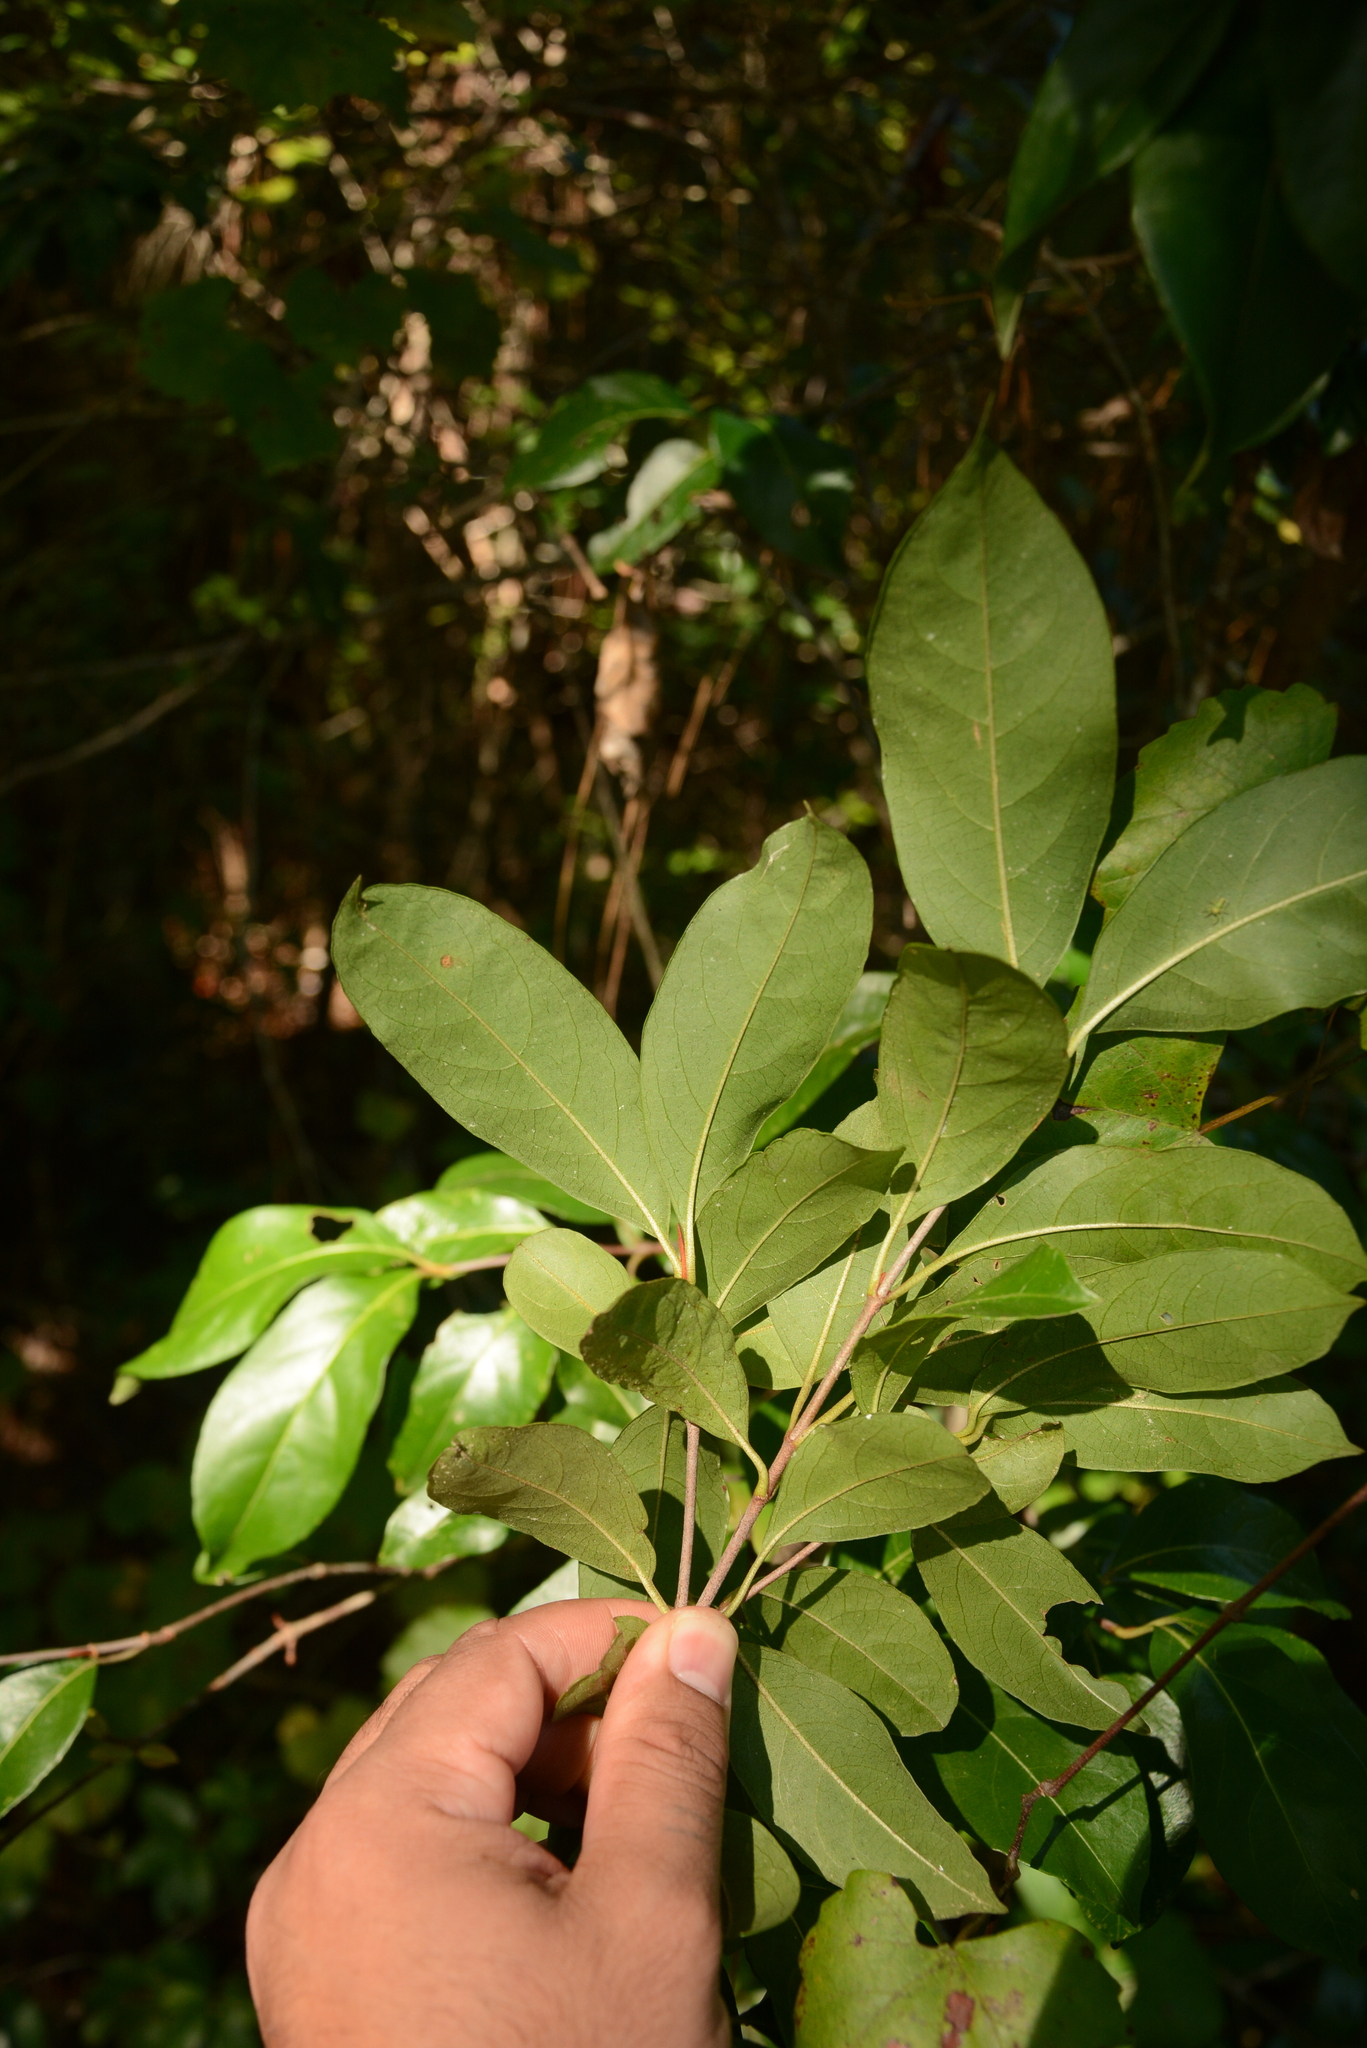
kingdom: Plantae
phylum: Tracheophyta
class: Magnoliopsida
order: Dipsacales
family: Viburnaceae
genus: Viburnum
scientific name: Viburnum nudum
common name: Possum haw
